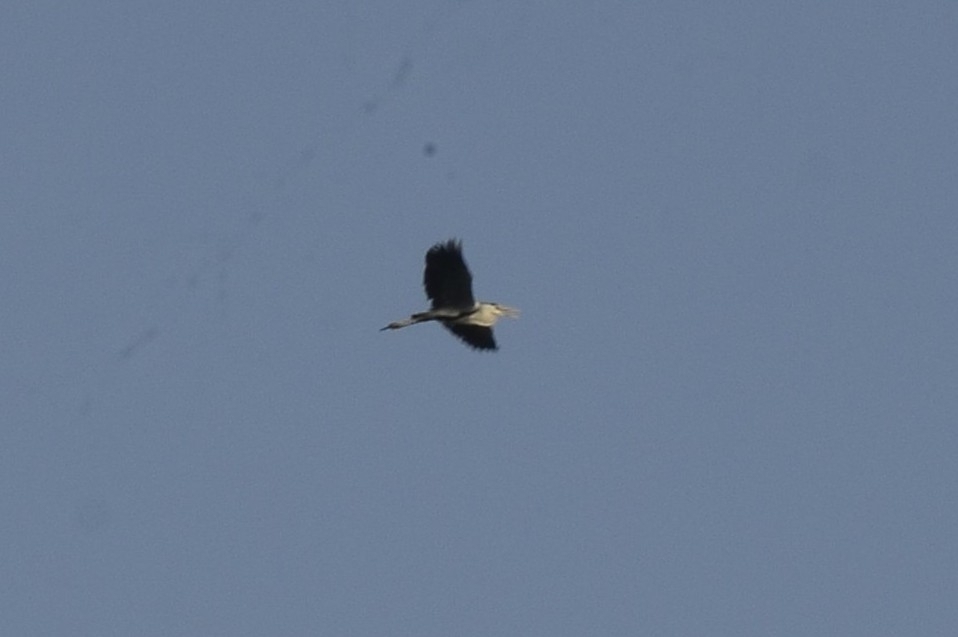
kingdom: Animalia
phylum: Chordata
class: Aves
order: Pelecaniformes
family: Ardeidae
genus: Ardea
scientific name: Ardea cinerea
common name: Grey heron
